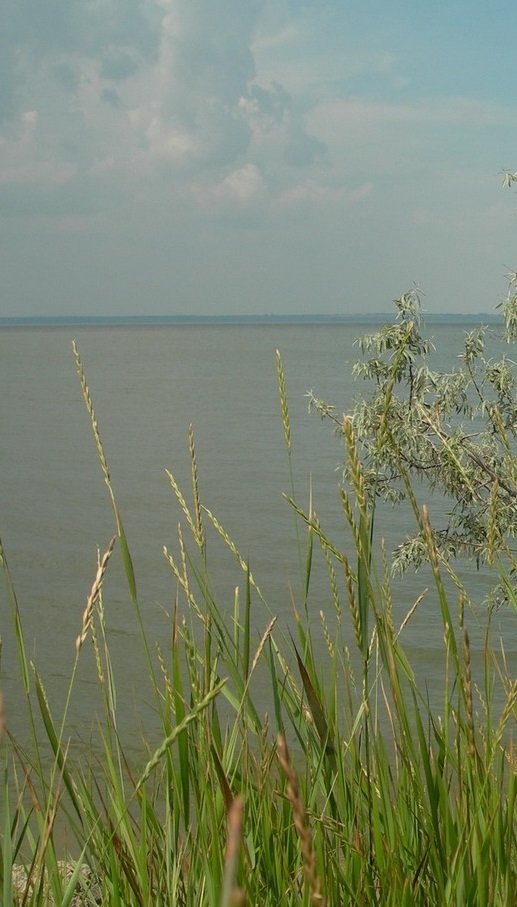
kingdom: Plantae
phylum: Tracheophyta
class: Liliopsida
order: Poales
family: Poaceae
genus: Elymus
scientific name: Elymus repens
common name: Quackgrass
